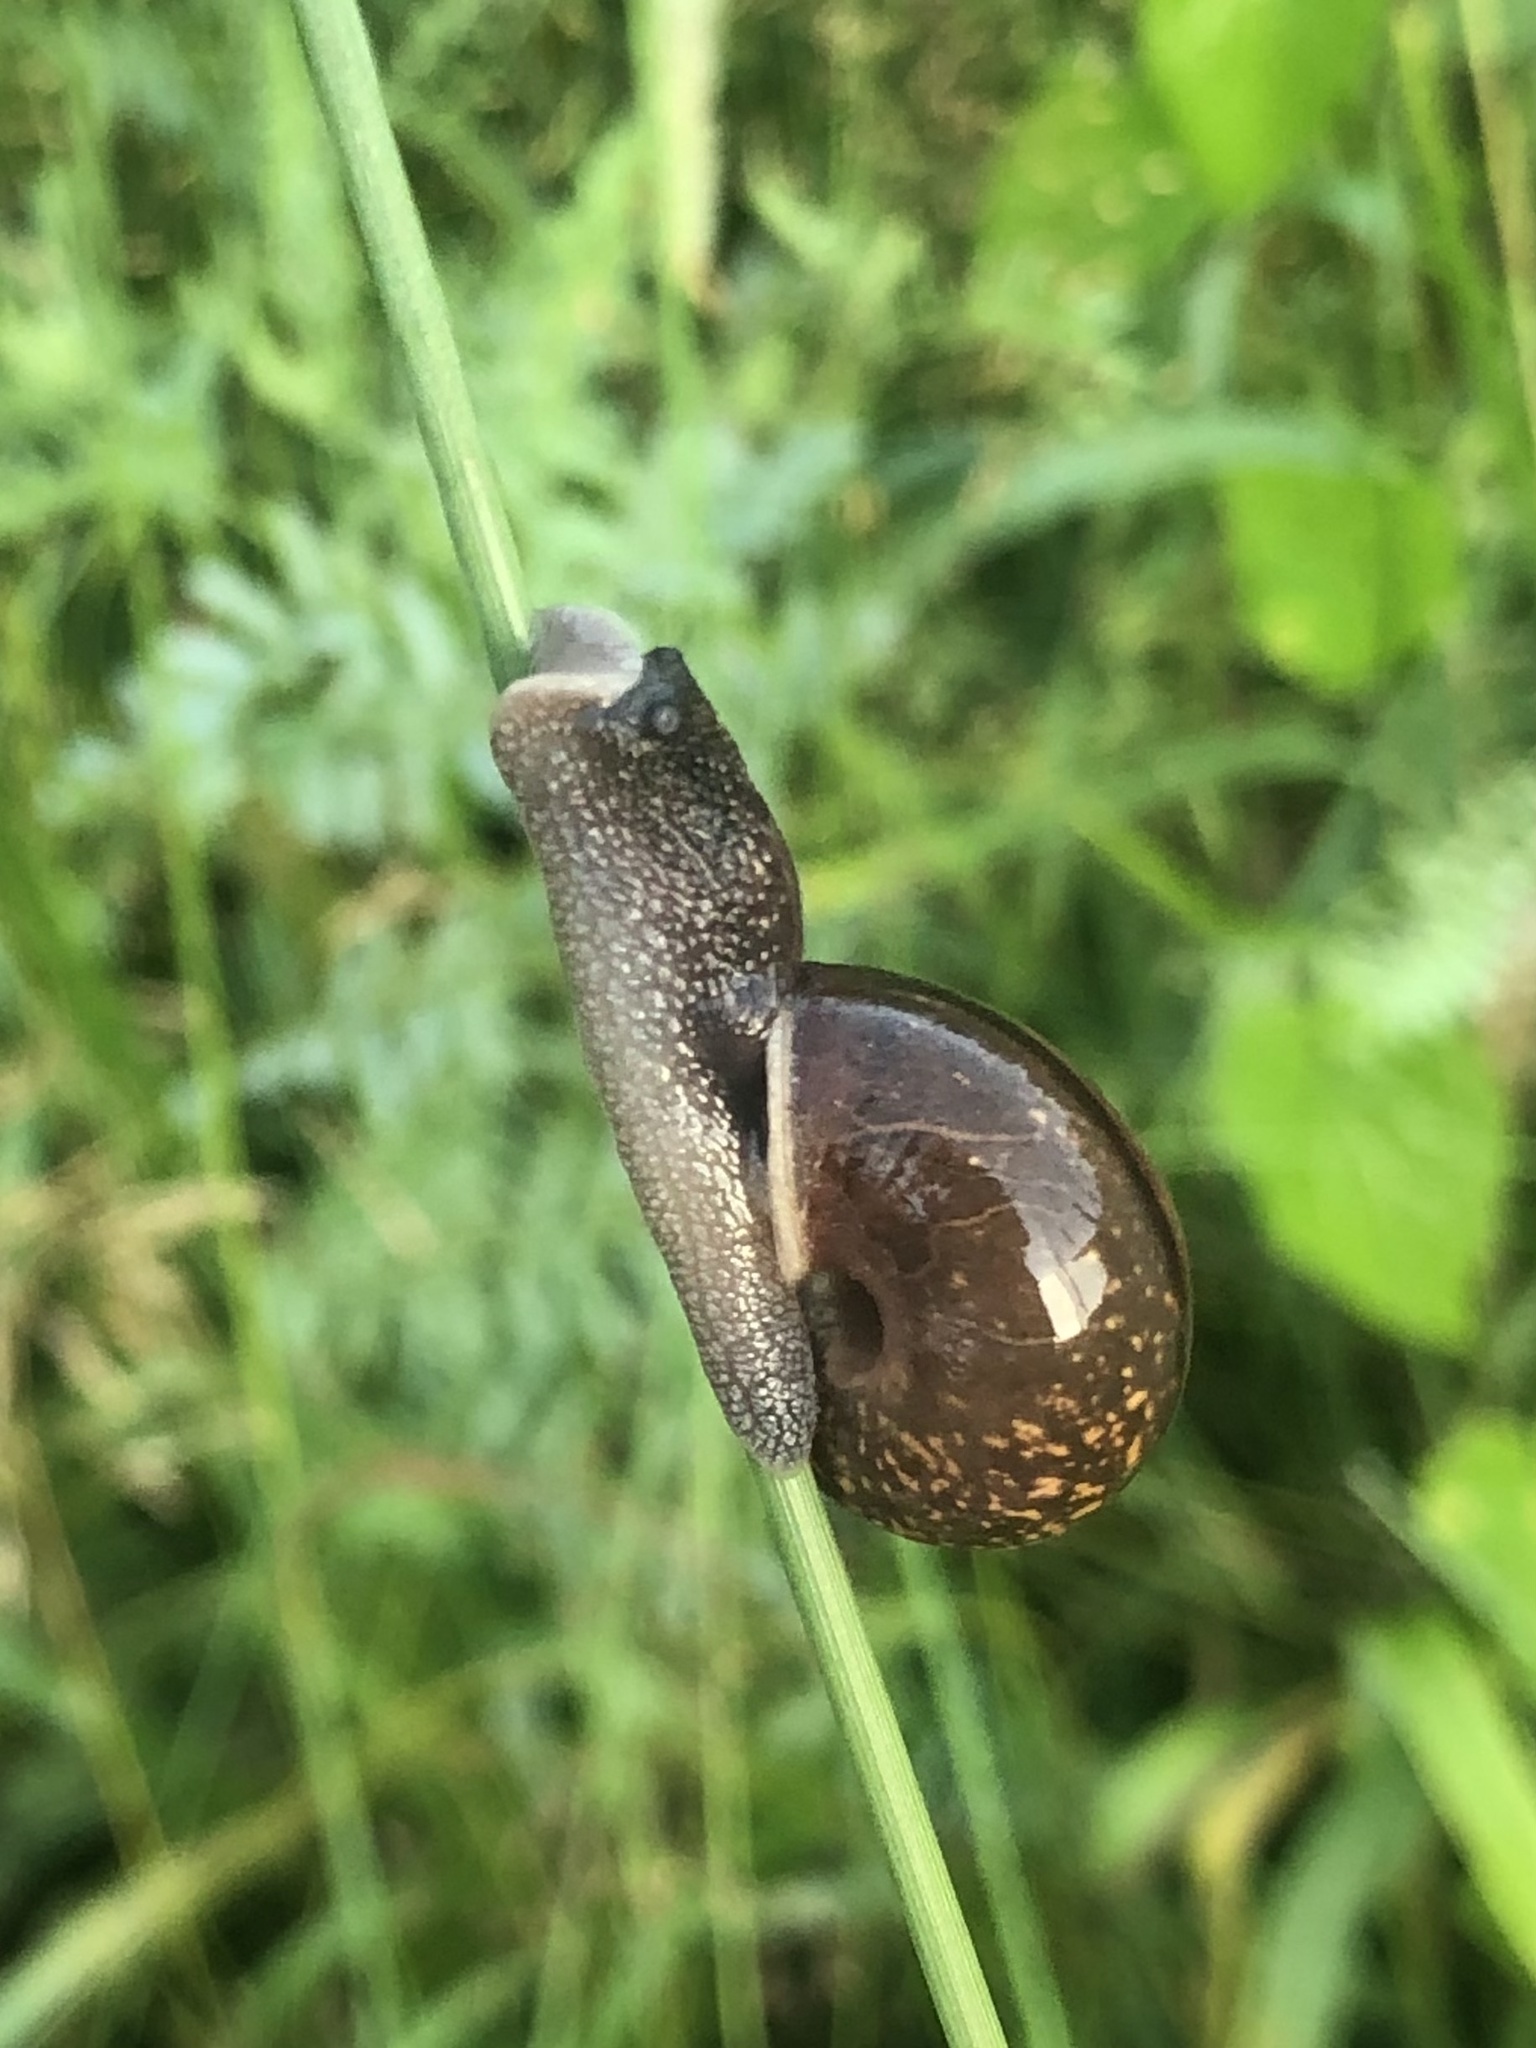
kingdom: Animalia
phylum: Mollusca
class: Gastropoda
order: Stylommatophora
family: Camaenidae
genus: Fruticicola
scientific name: Fruticicola fruticum
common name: Bush snail
